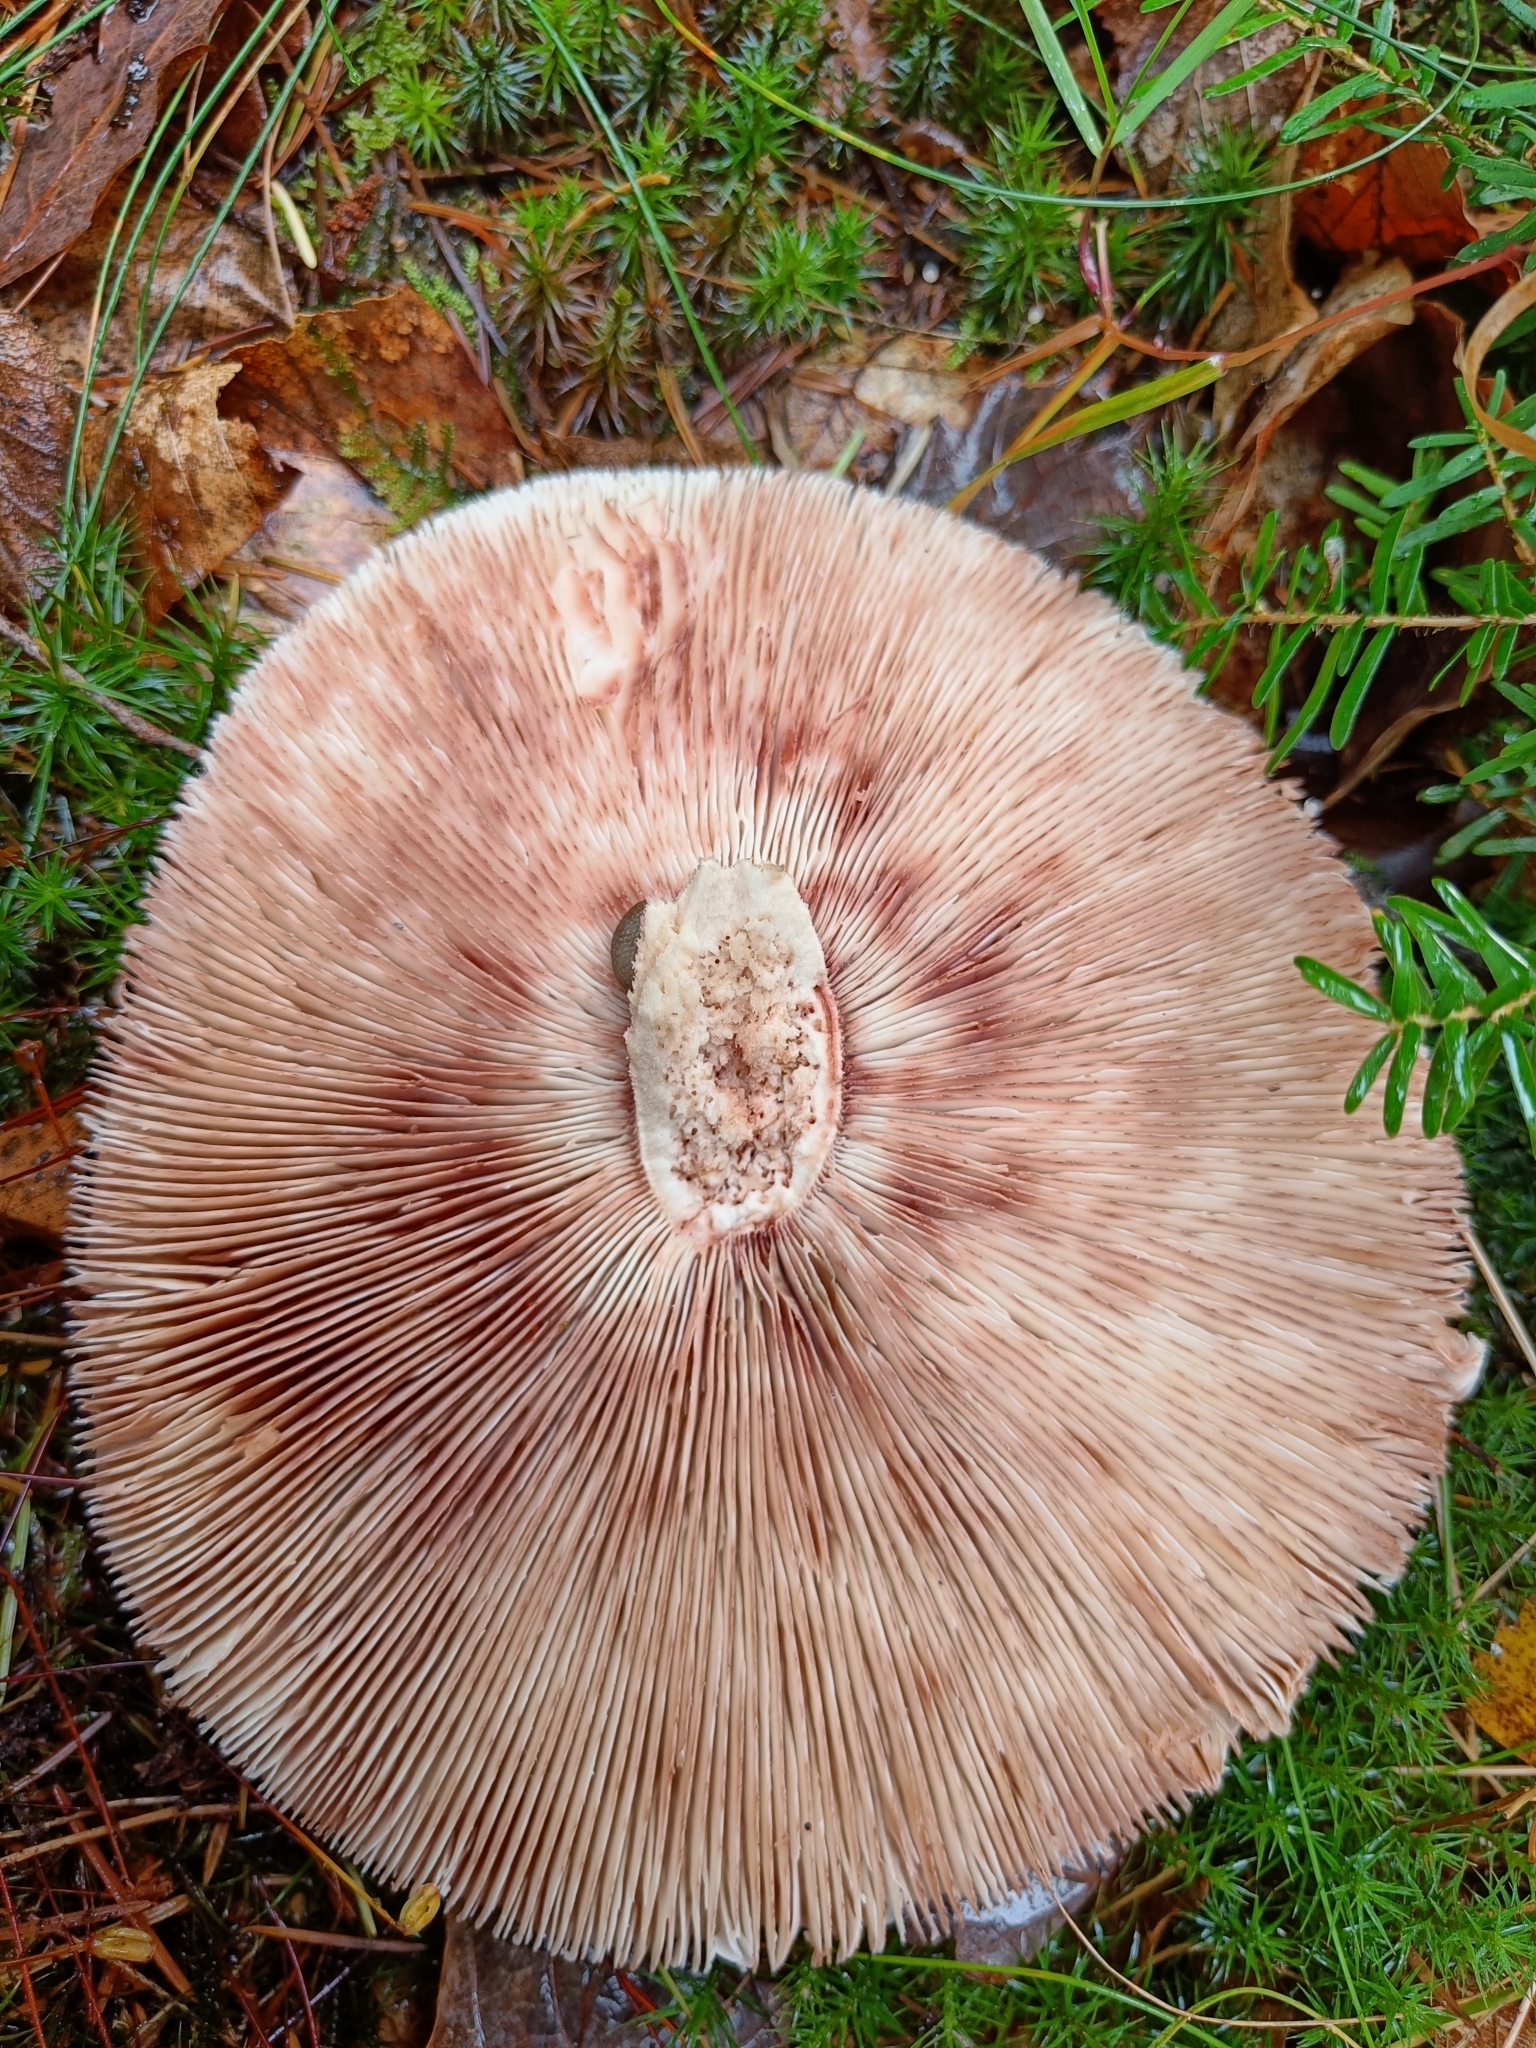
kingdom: Fungi
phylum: Basidiomycota
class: Agaricomycetes
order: Agaricales
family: Amanitaceae
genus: Amanita
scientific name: Amanita rubescens
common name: Blusher
